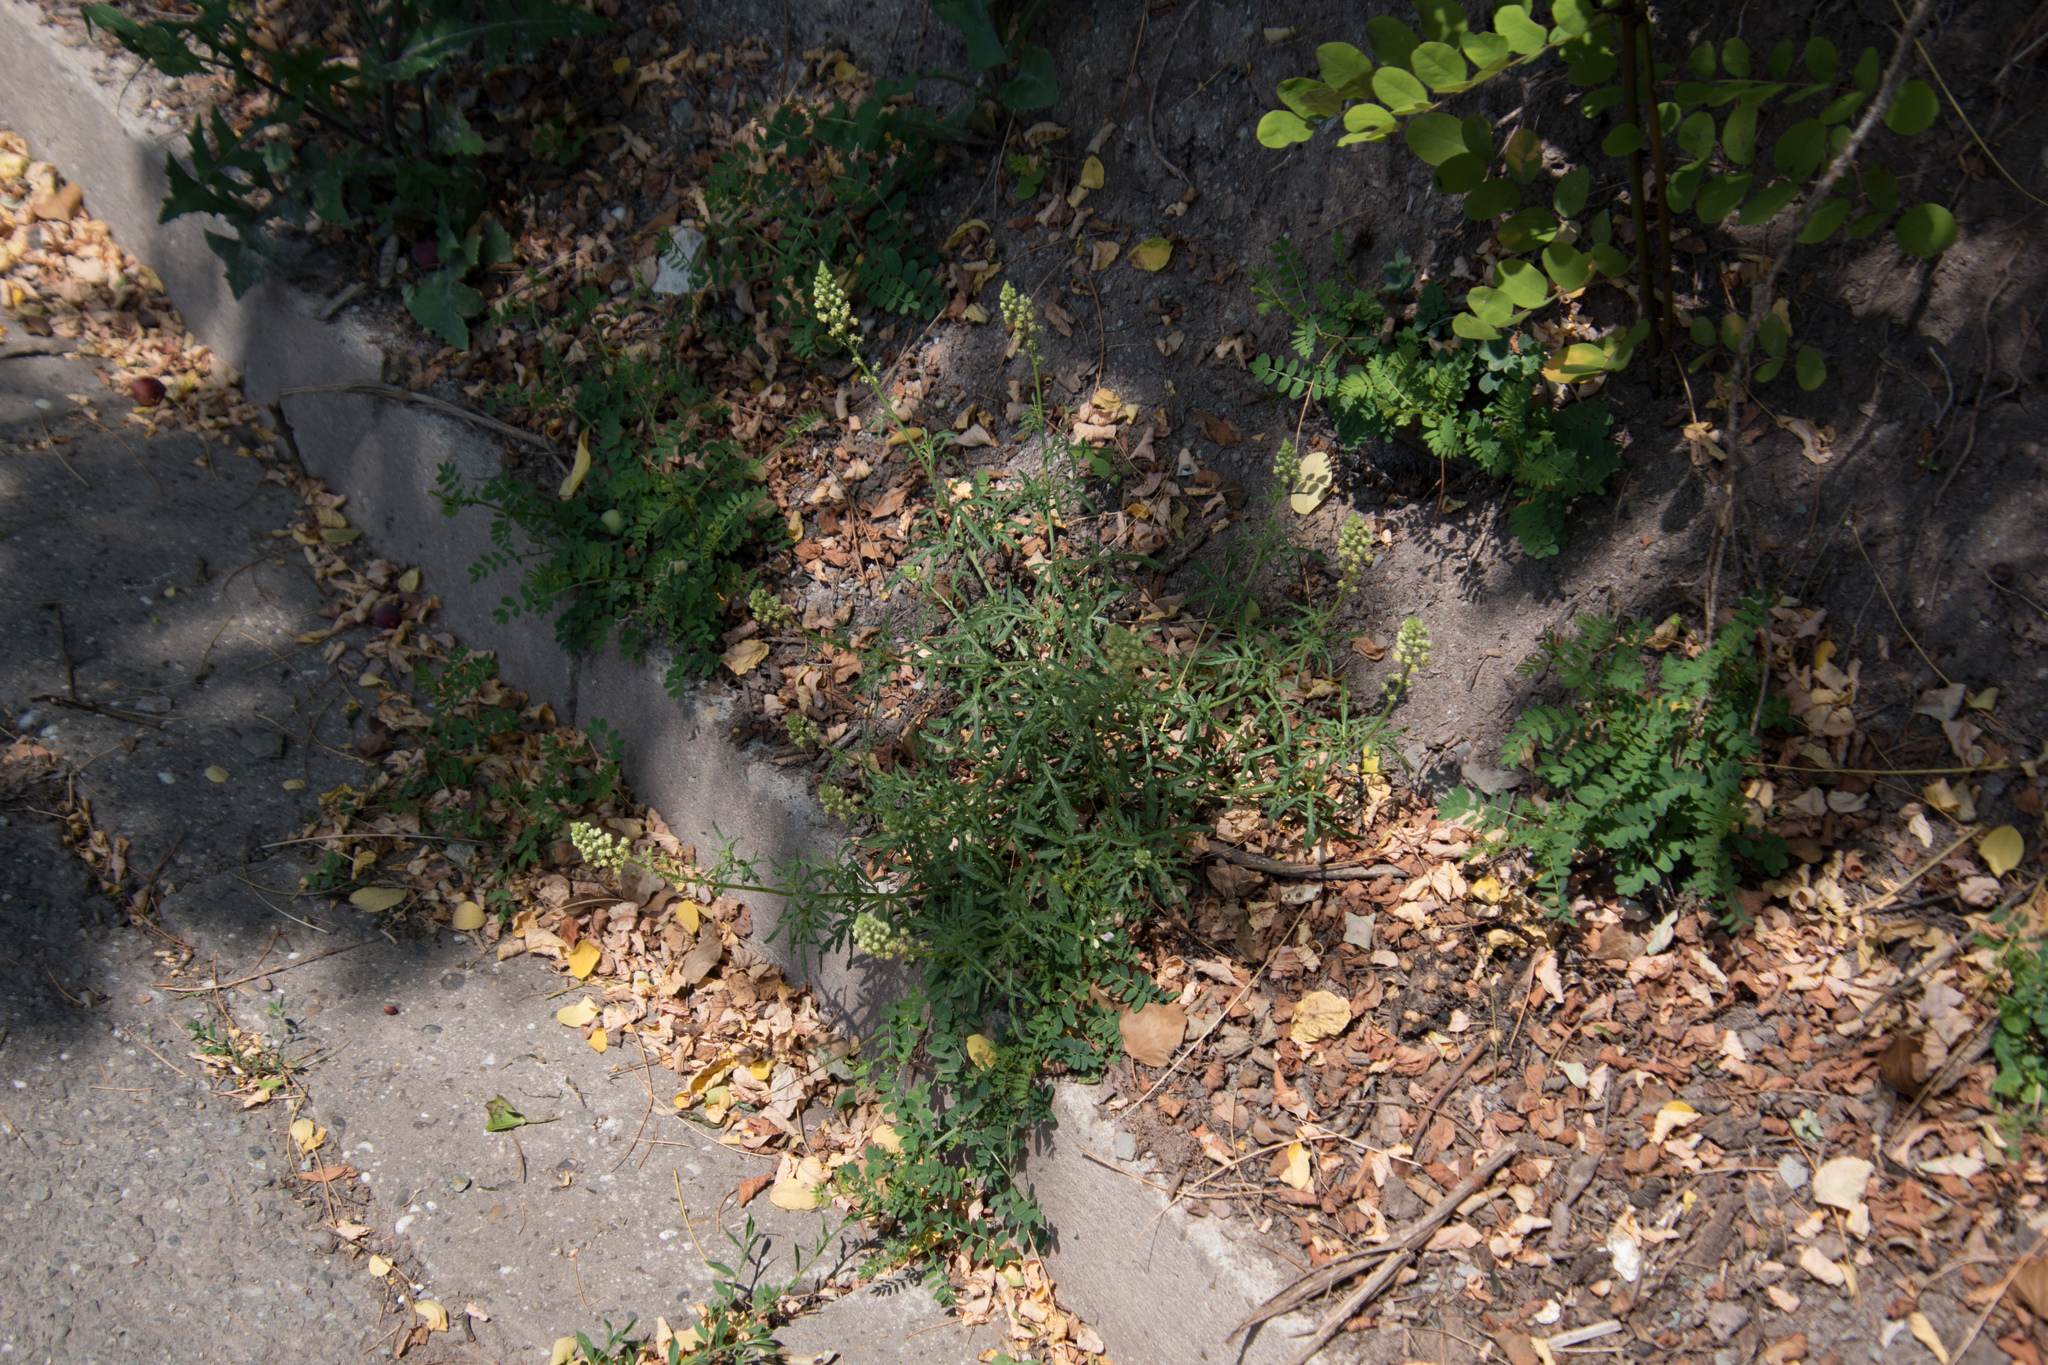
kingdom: Plantae
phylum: Tracheophyta
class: Magnoliopsida
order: Brassicales
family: Resedaceae
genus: Reseda
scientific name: Reseda lutea
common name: Wild mignonette
